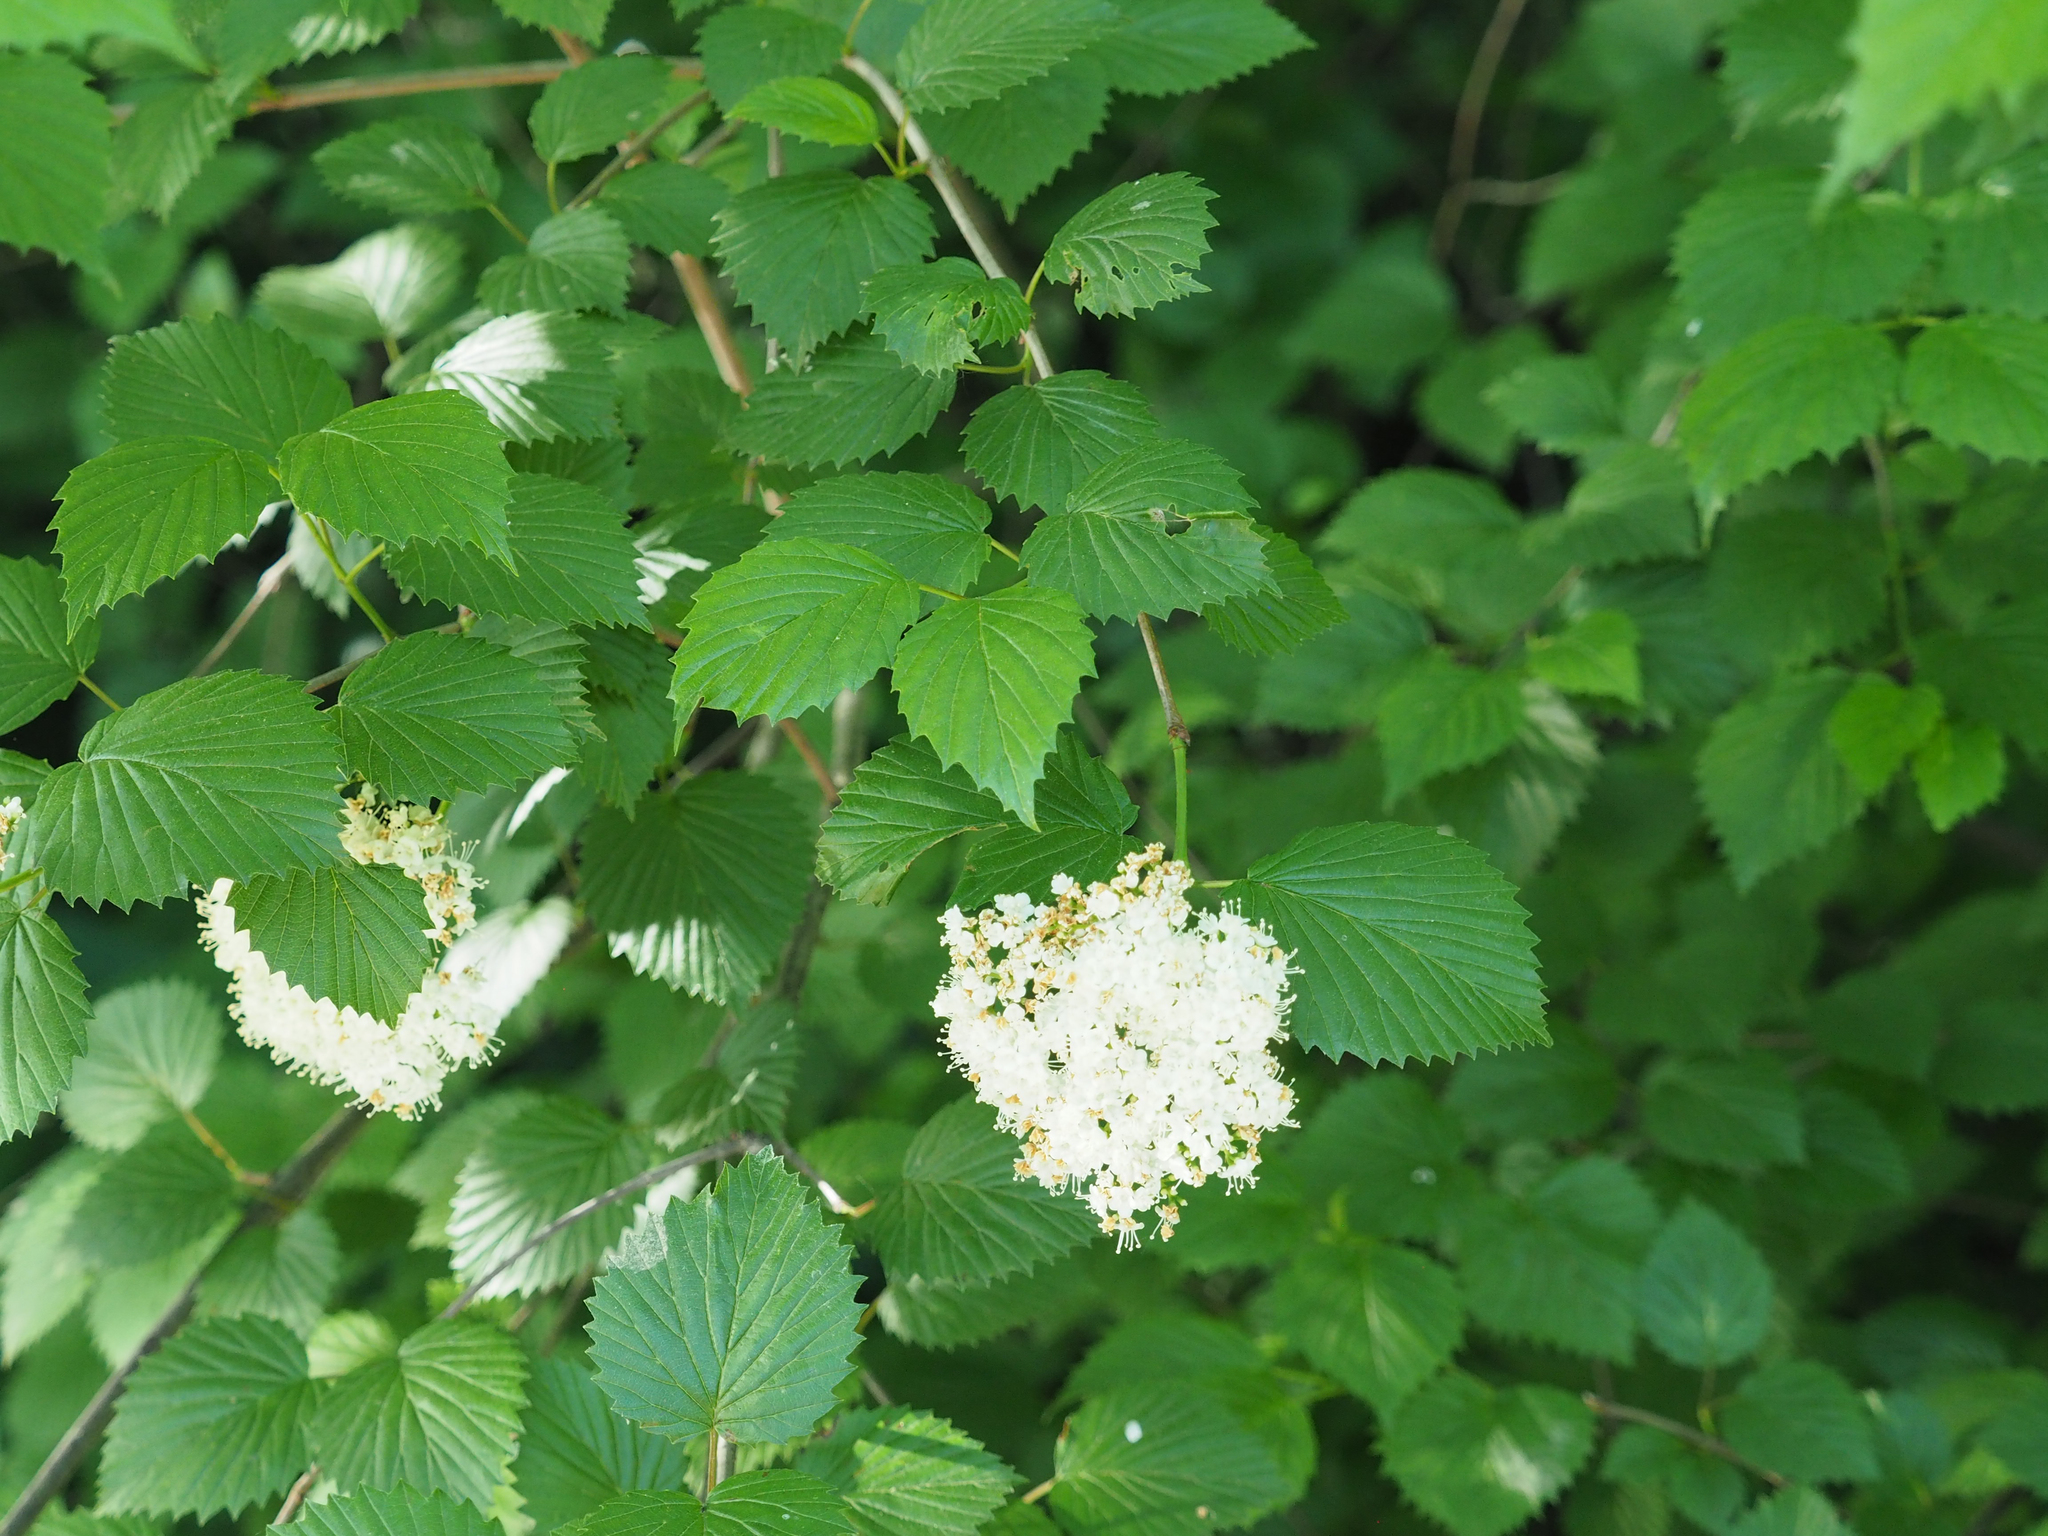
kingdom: Plantae
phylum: Tracheophyta
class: Magnoliopsida
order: Dipsacales
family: Viburnaceae
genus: Viburnum
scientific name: Viburnum dentatum
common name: Arrow-wood
